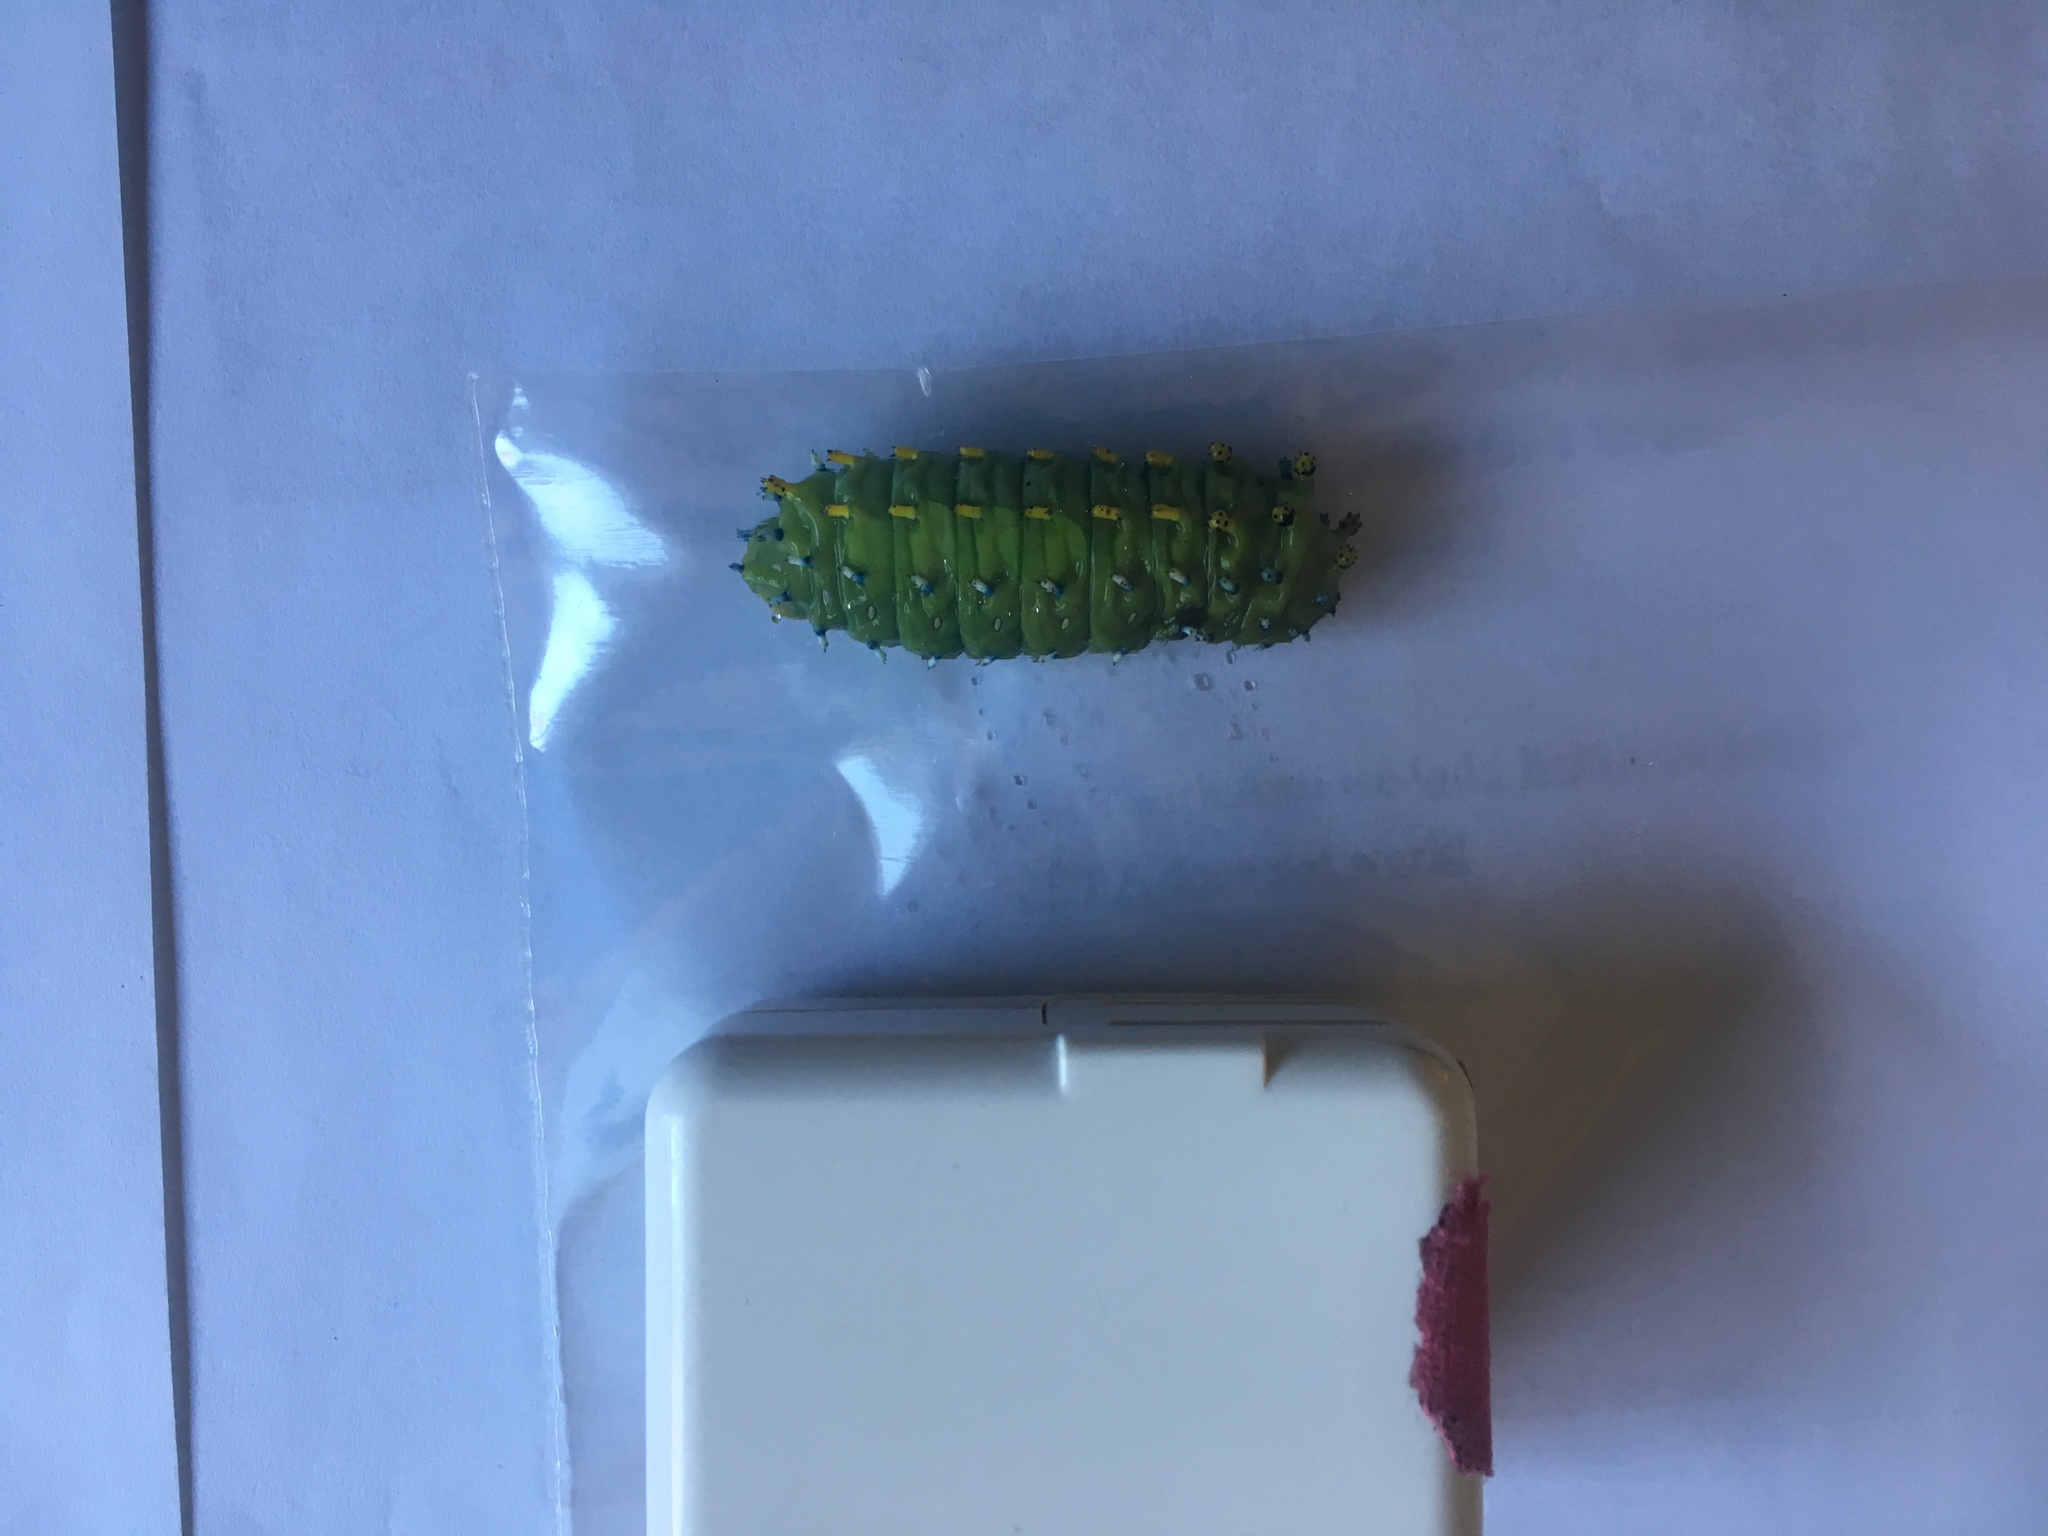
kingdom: Animalia
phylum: Arthropoda
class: Insecta
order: Lepidoptera
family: Saturniidae
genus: Hyalophora
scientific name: Hyalophora gloveri
